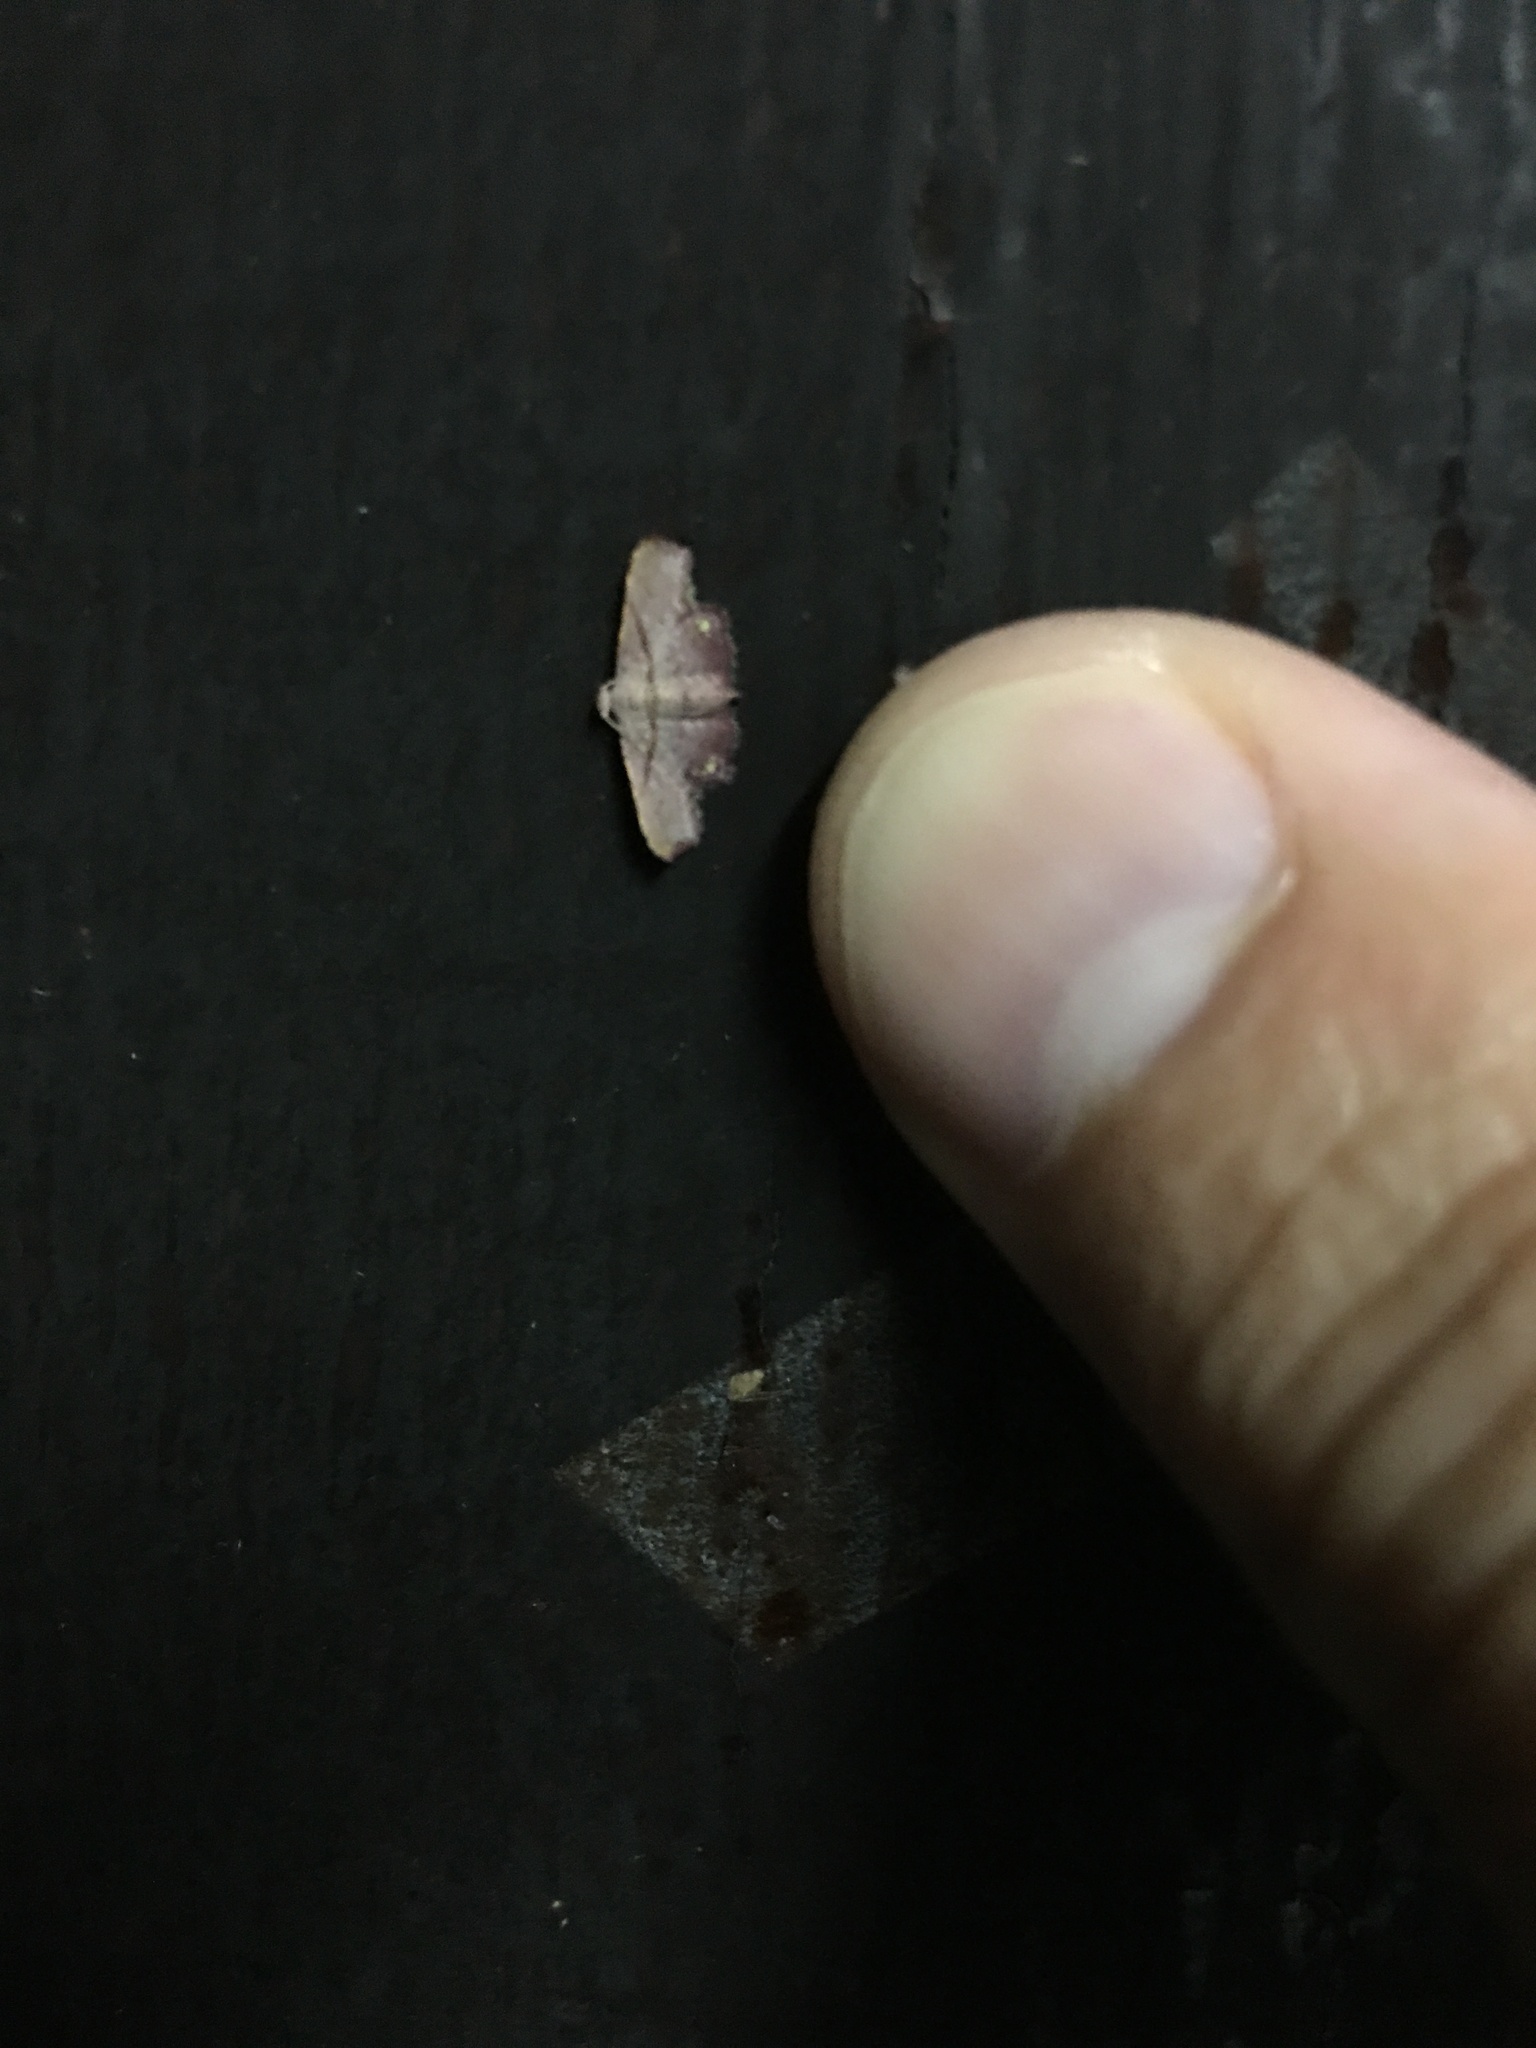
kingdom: Animalia
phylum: Arthropoda
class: Insecta
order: Lepidoptera
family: Noctuidae
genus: Niaccaba
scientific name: Niaccaba sumptualis
